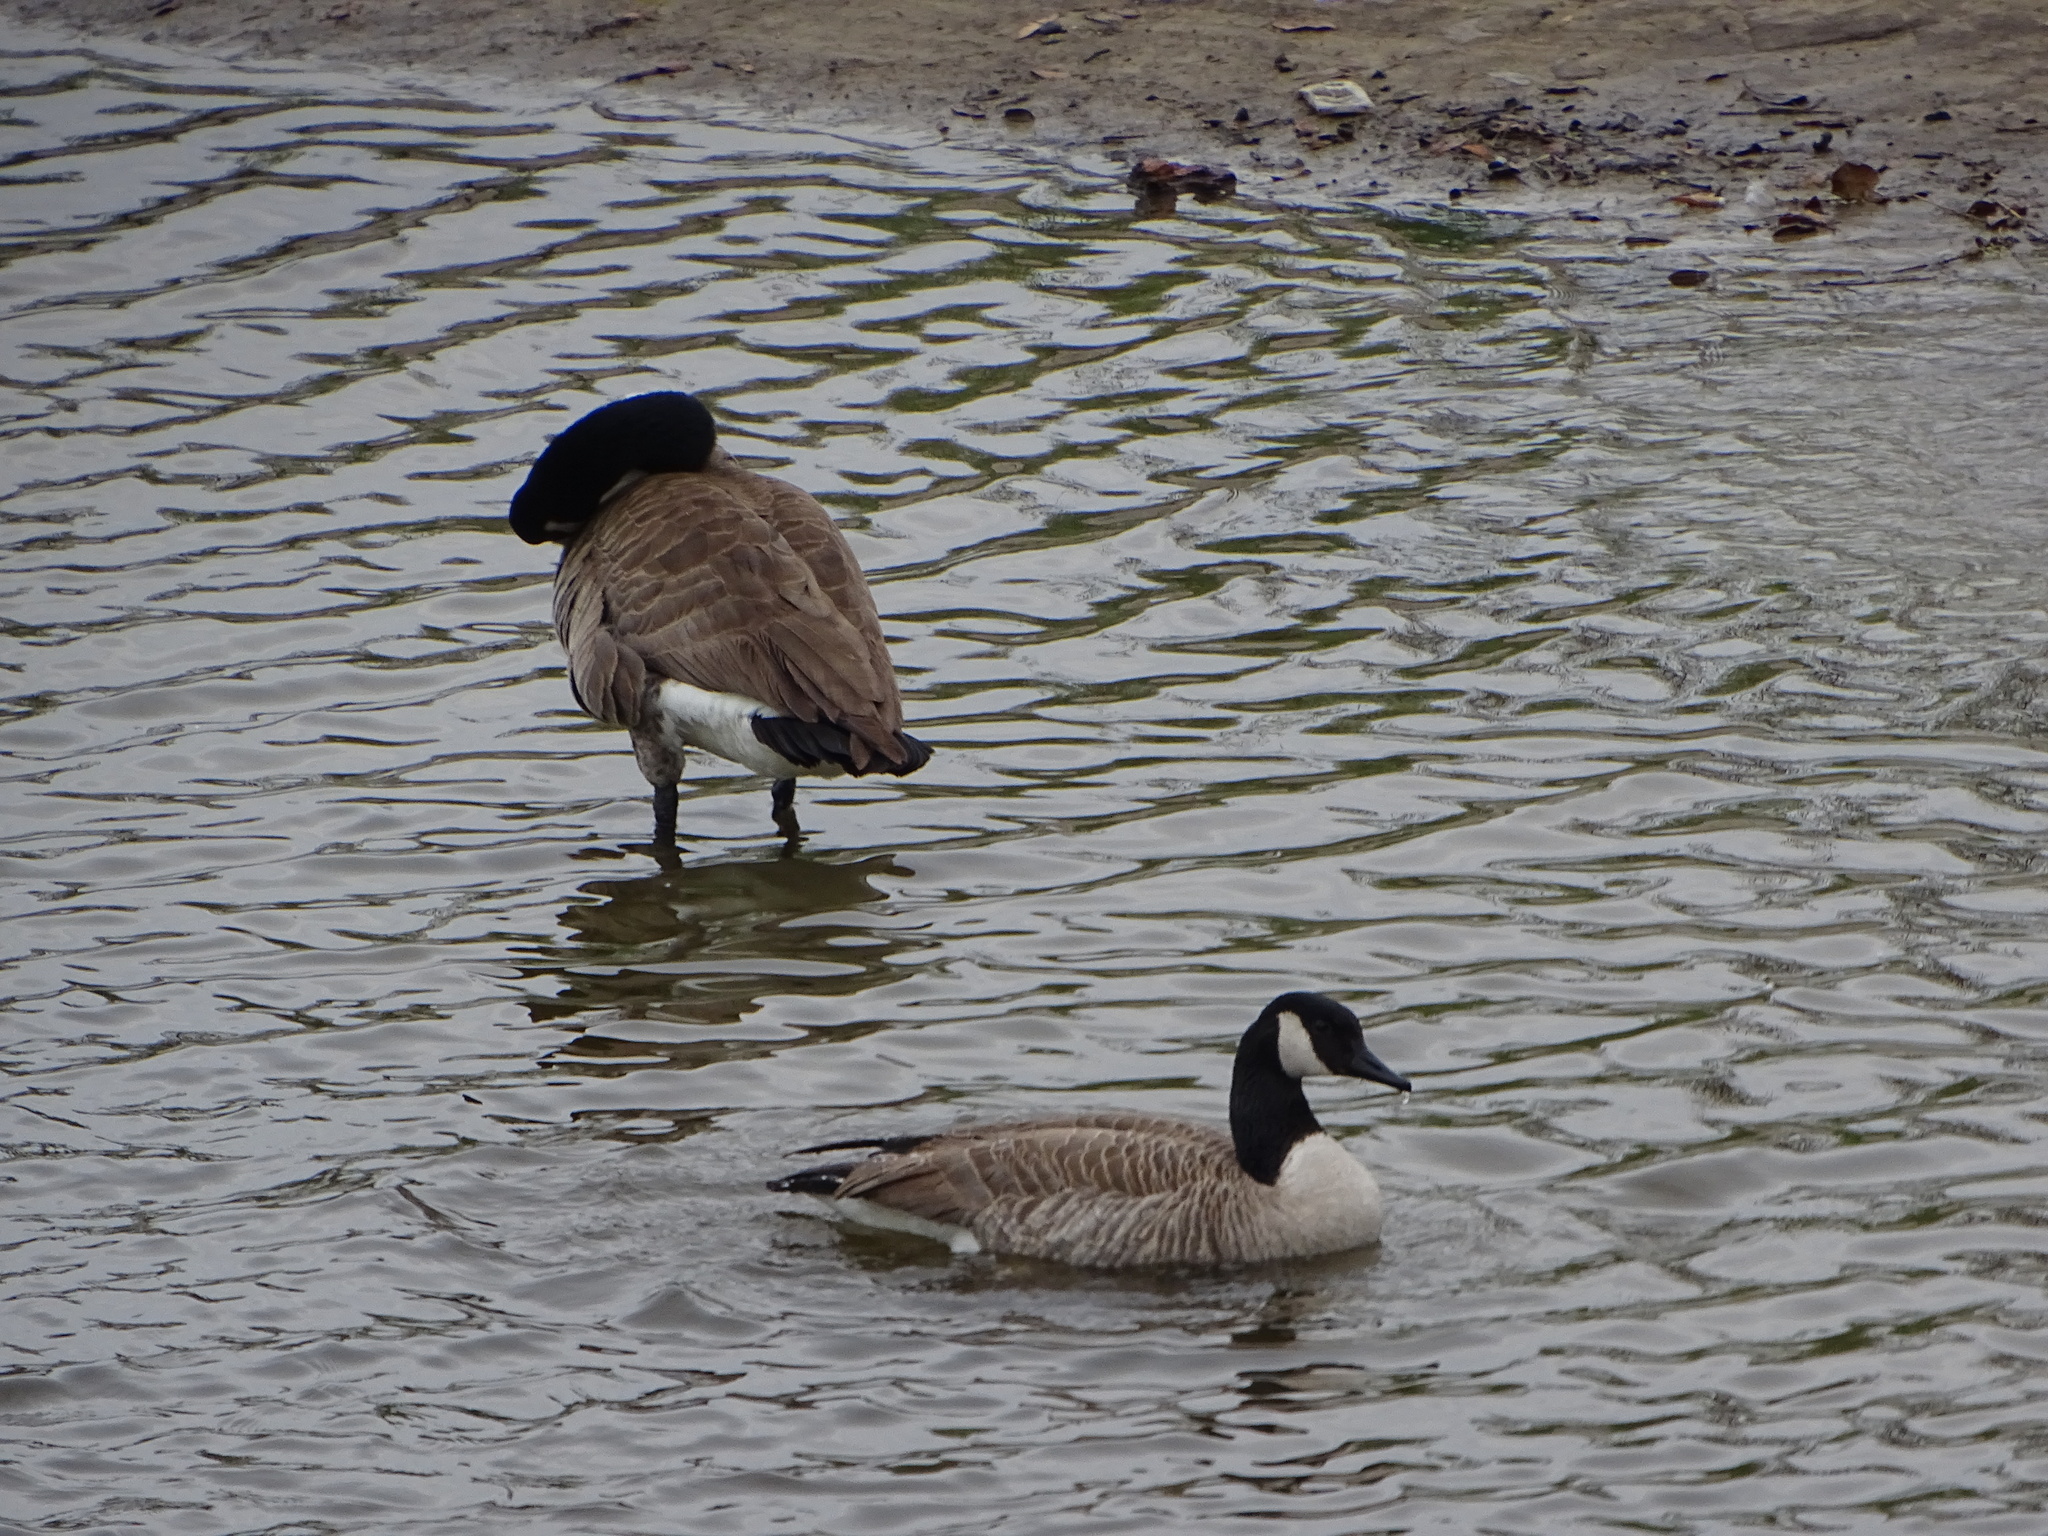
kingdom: Animalia
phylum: Chordata
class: Aves
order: Anseriformes
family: Anatidae
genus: Branta
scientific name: Branta canadensis
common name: Canada goose
